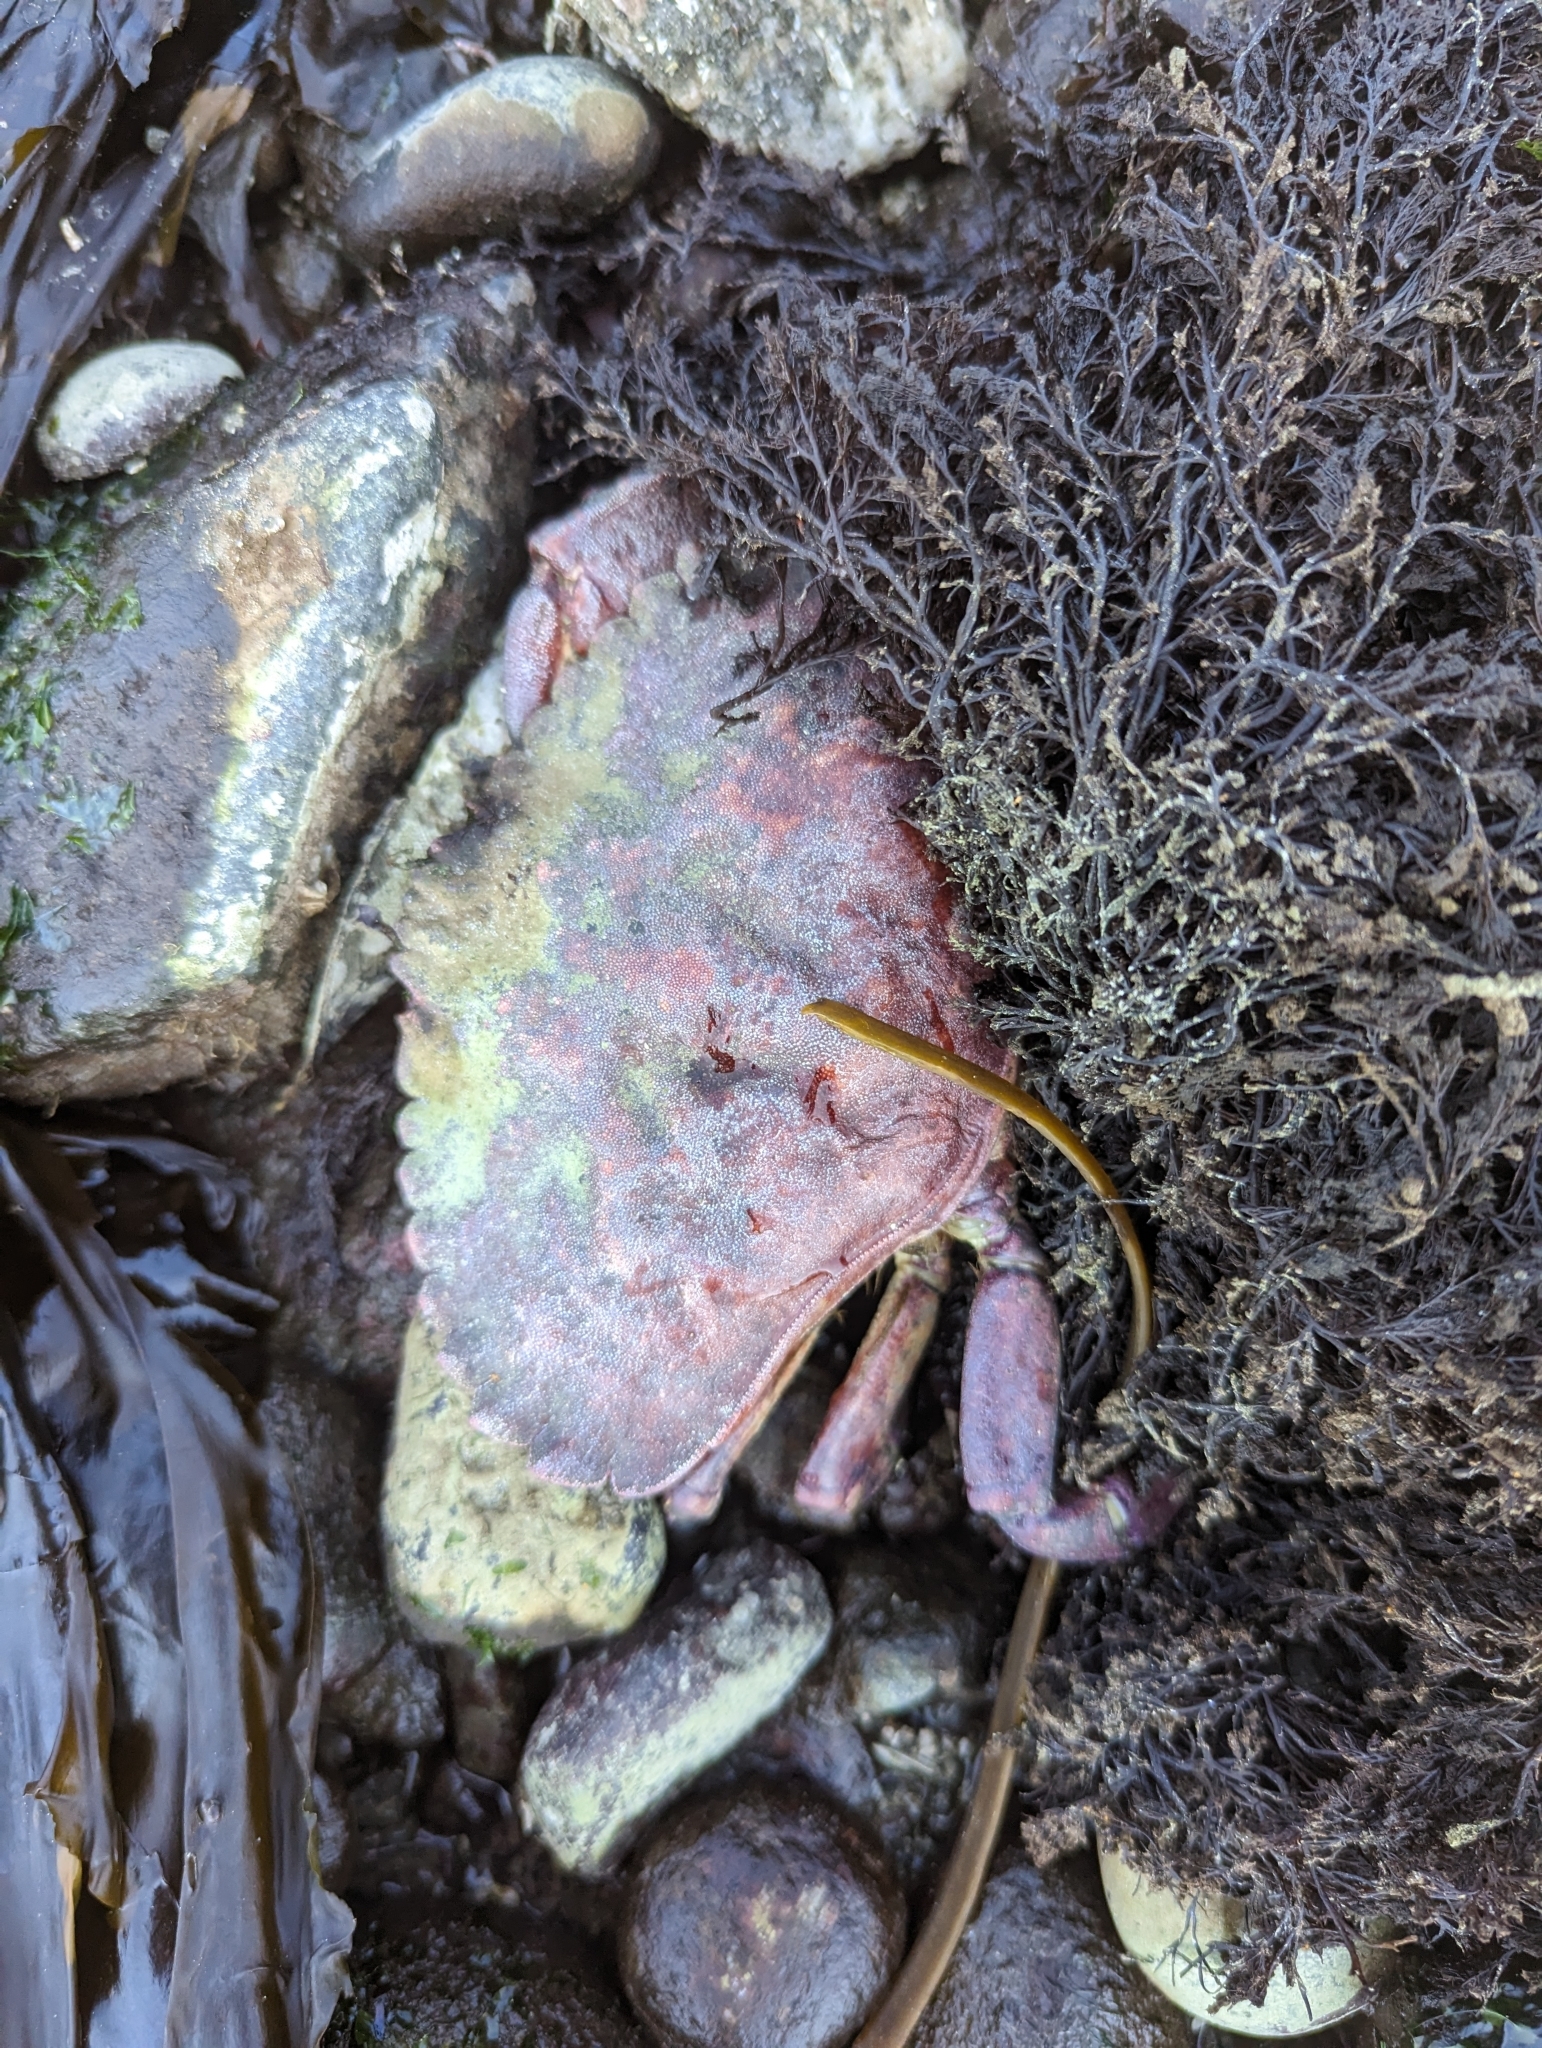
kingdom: Animalia
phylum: Arthropoda
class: Malacostraca
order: Decapoda
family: Cancridae
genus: Cancer
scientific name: Cancer productus
